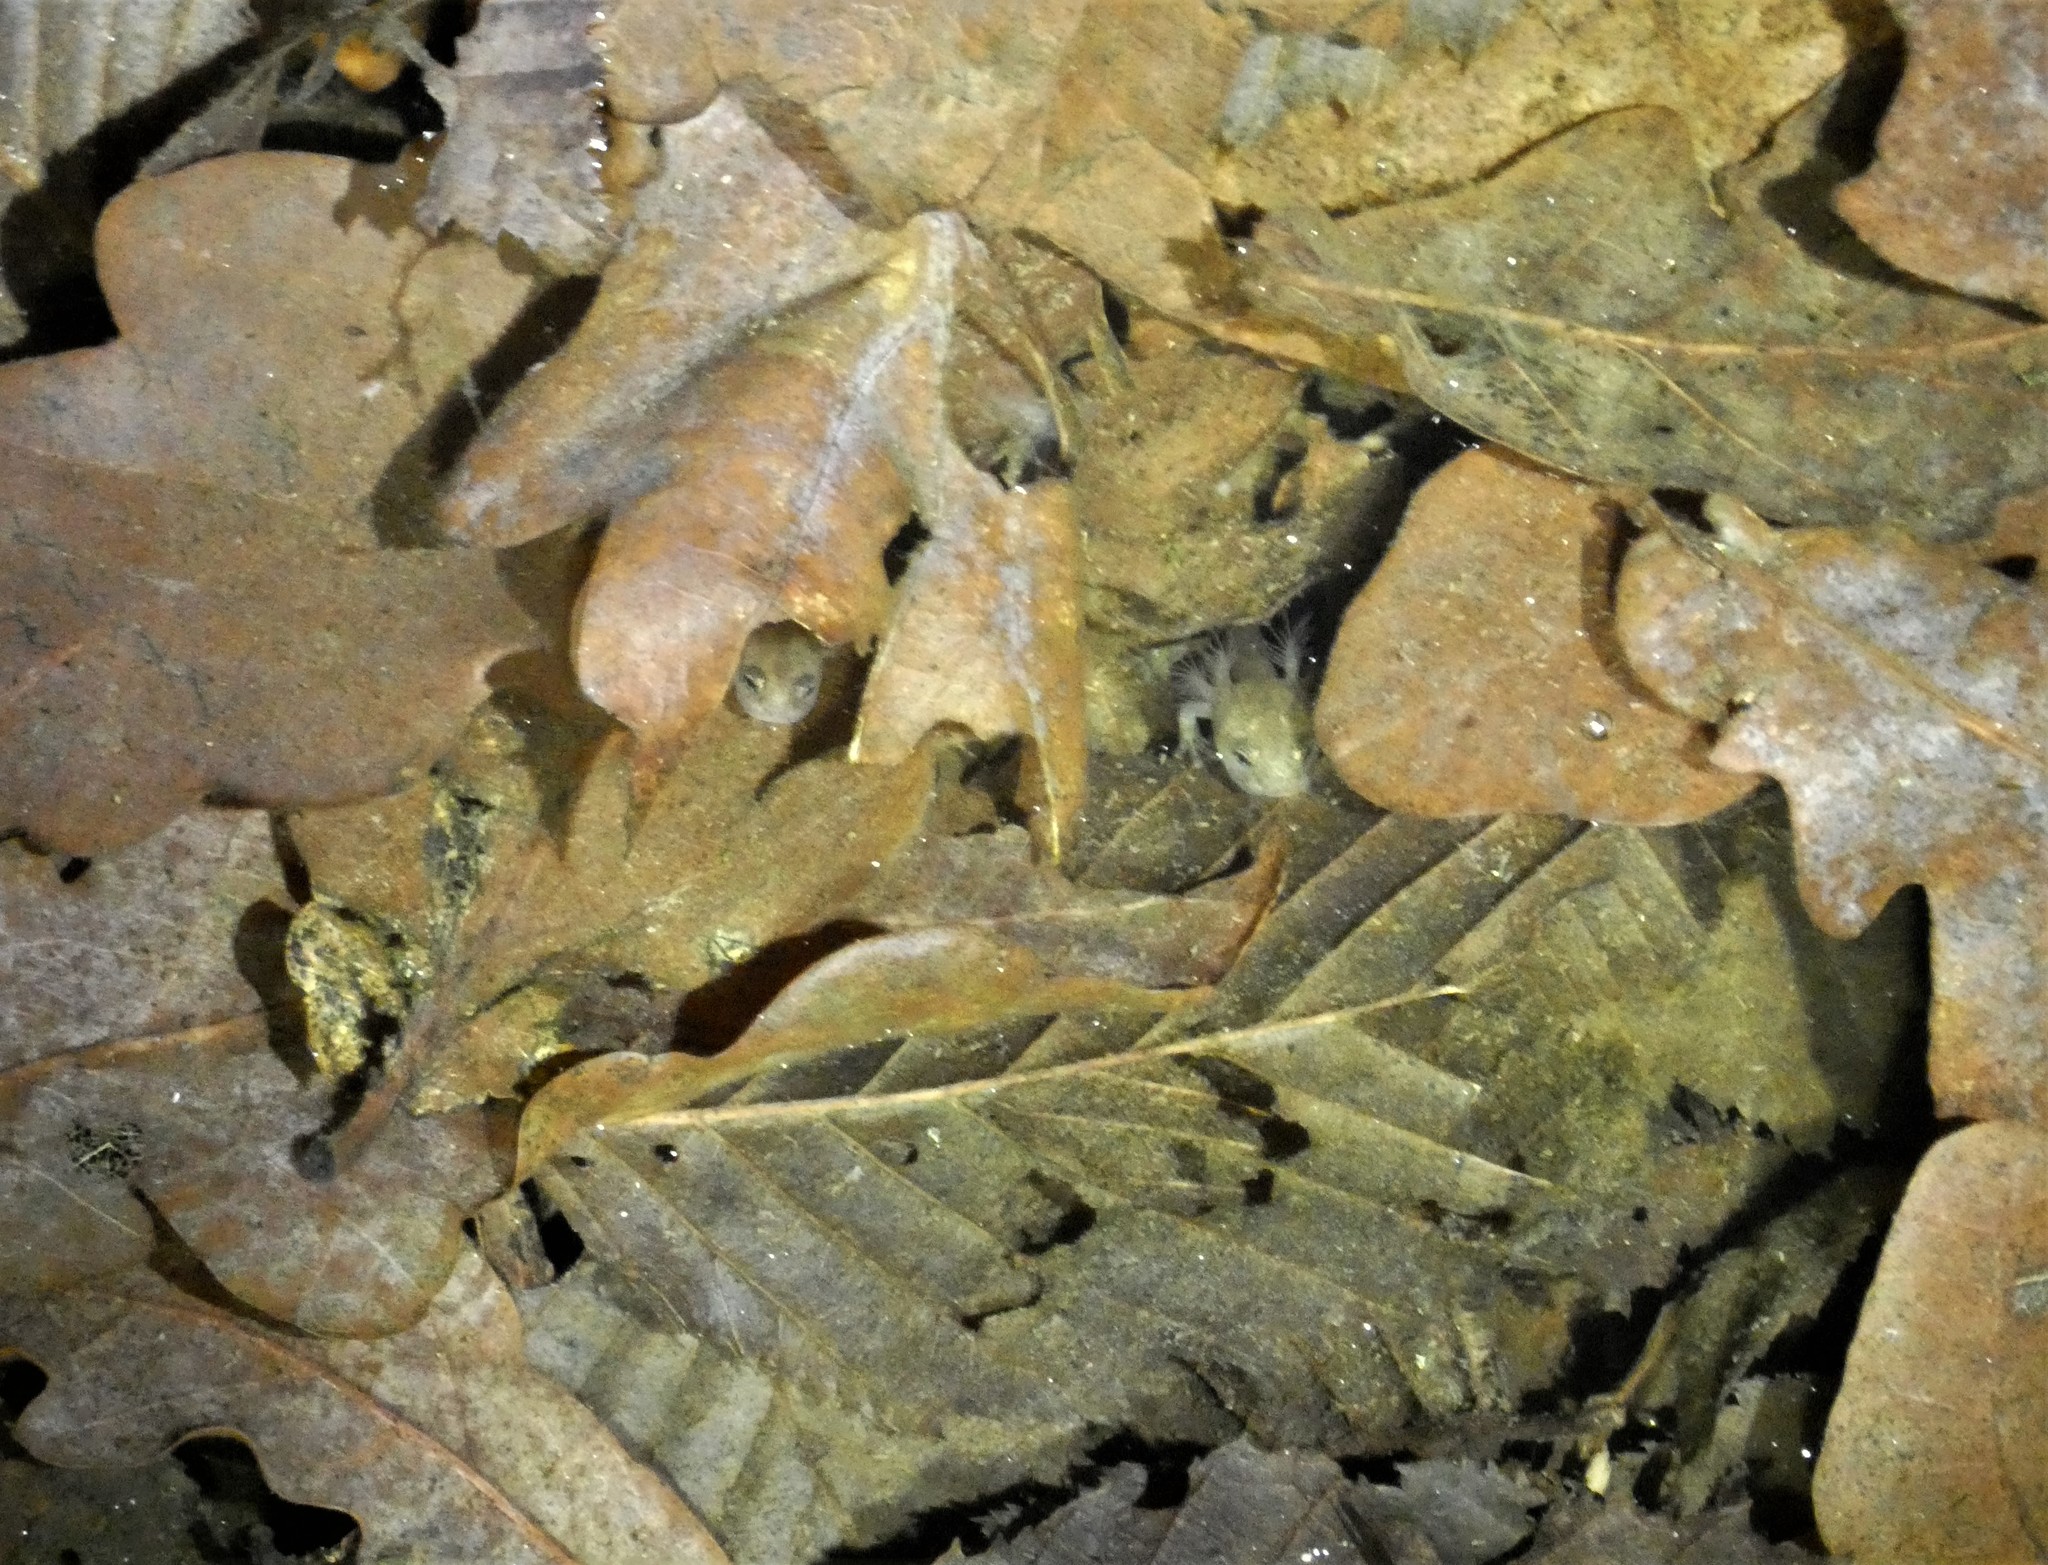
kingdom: Animalia
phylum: Chordata
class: Amphibia
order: Caudata
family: Salamandridae
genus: Salamandra
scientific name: Salamandra salamandra
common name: Fire salamander
